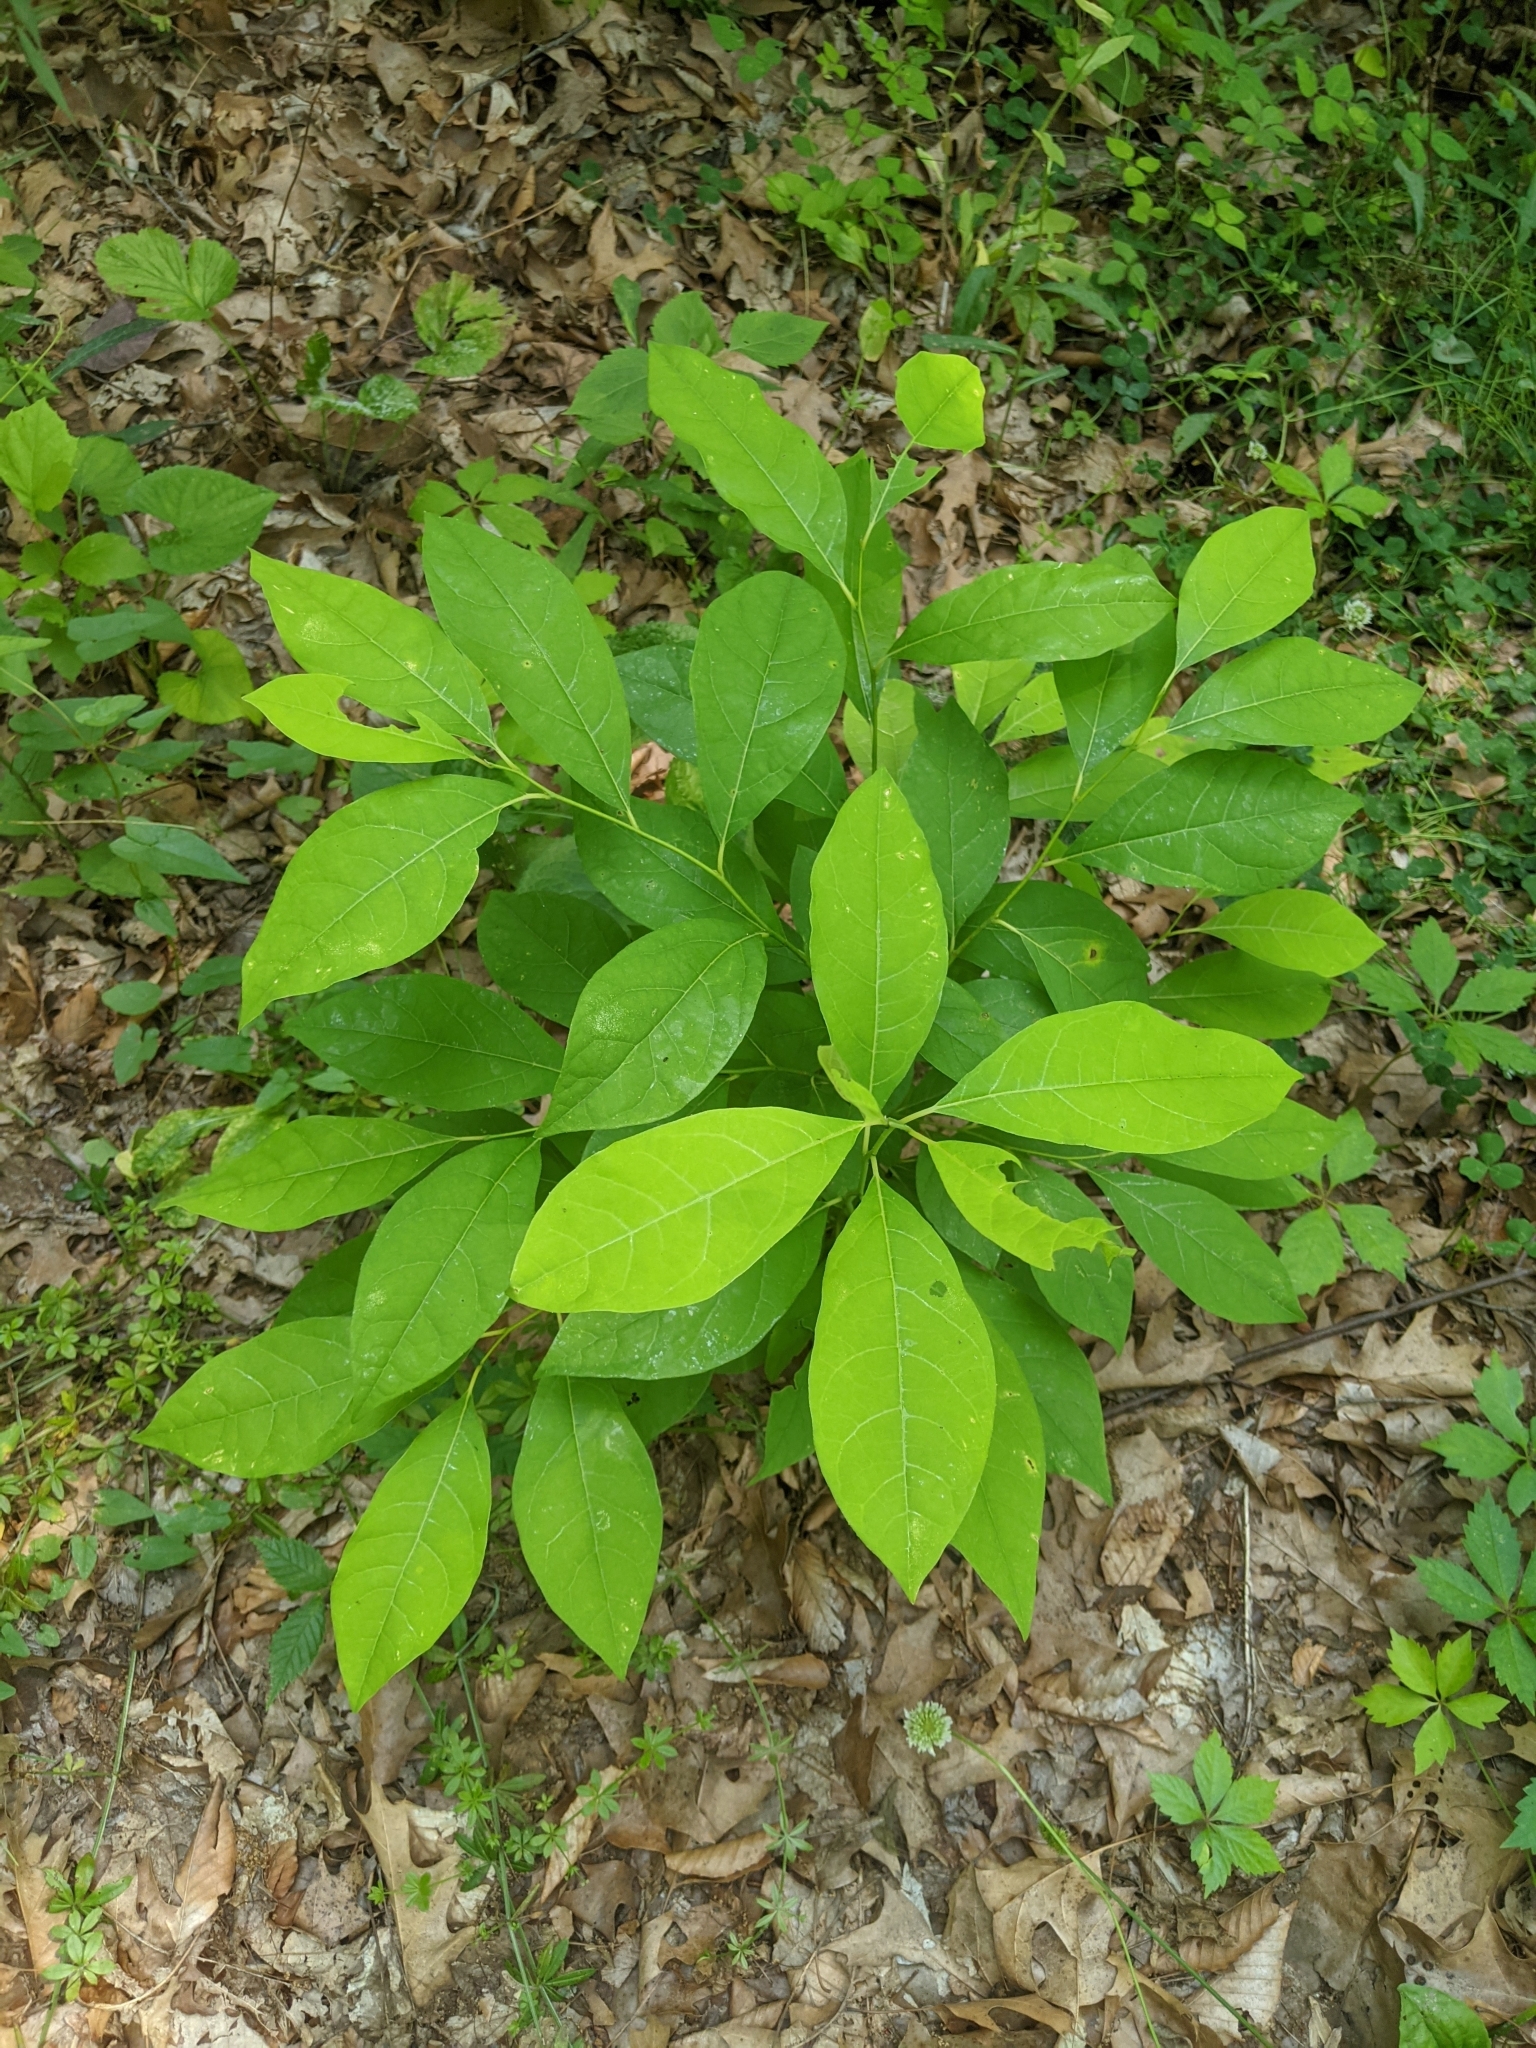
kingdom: Plantae
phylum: Tracheophyta
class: Magnoliopsida
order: Laurales
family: Lauraceae
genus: Lindera
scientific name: Lindera benzoin
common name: Spicebush
